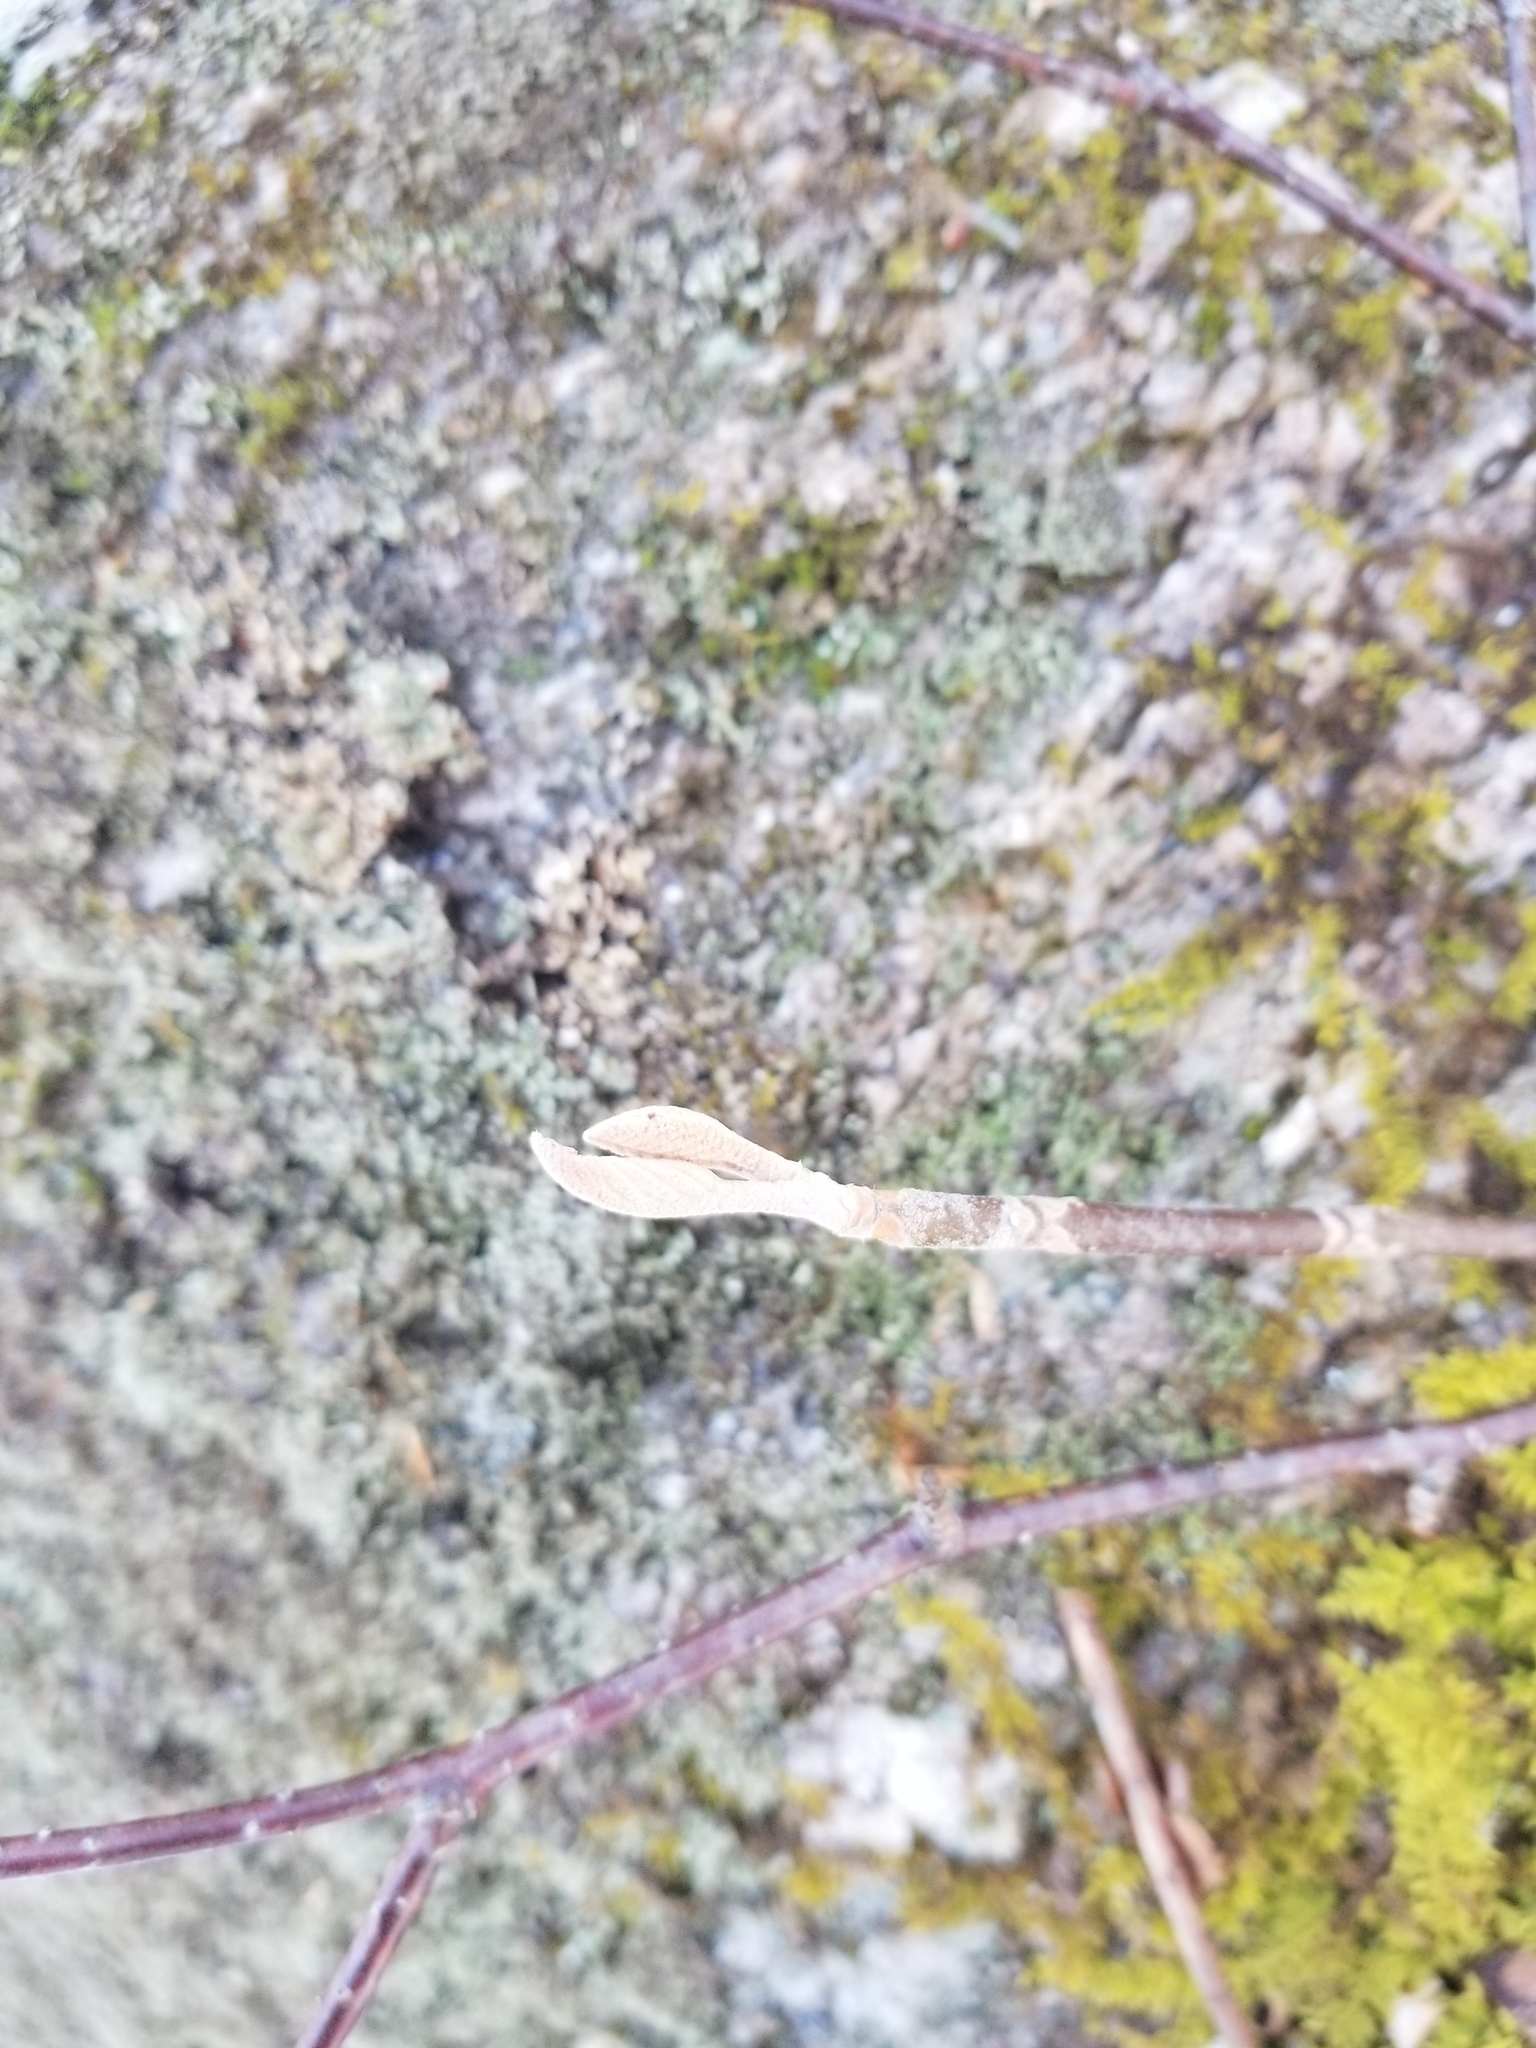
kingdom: Plantae
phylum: Tracheophyta
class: Magnoliopsida
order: Dipsacales
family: Viburnaceae
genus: Viburnum
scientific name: Viburnum lantanoides
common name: Hobblebush
